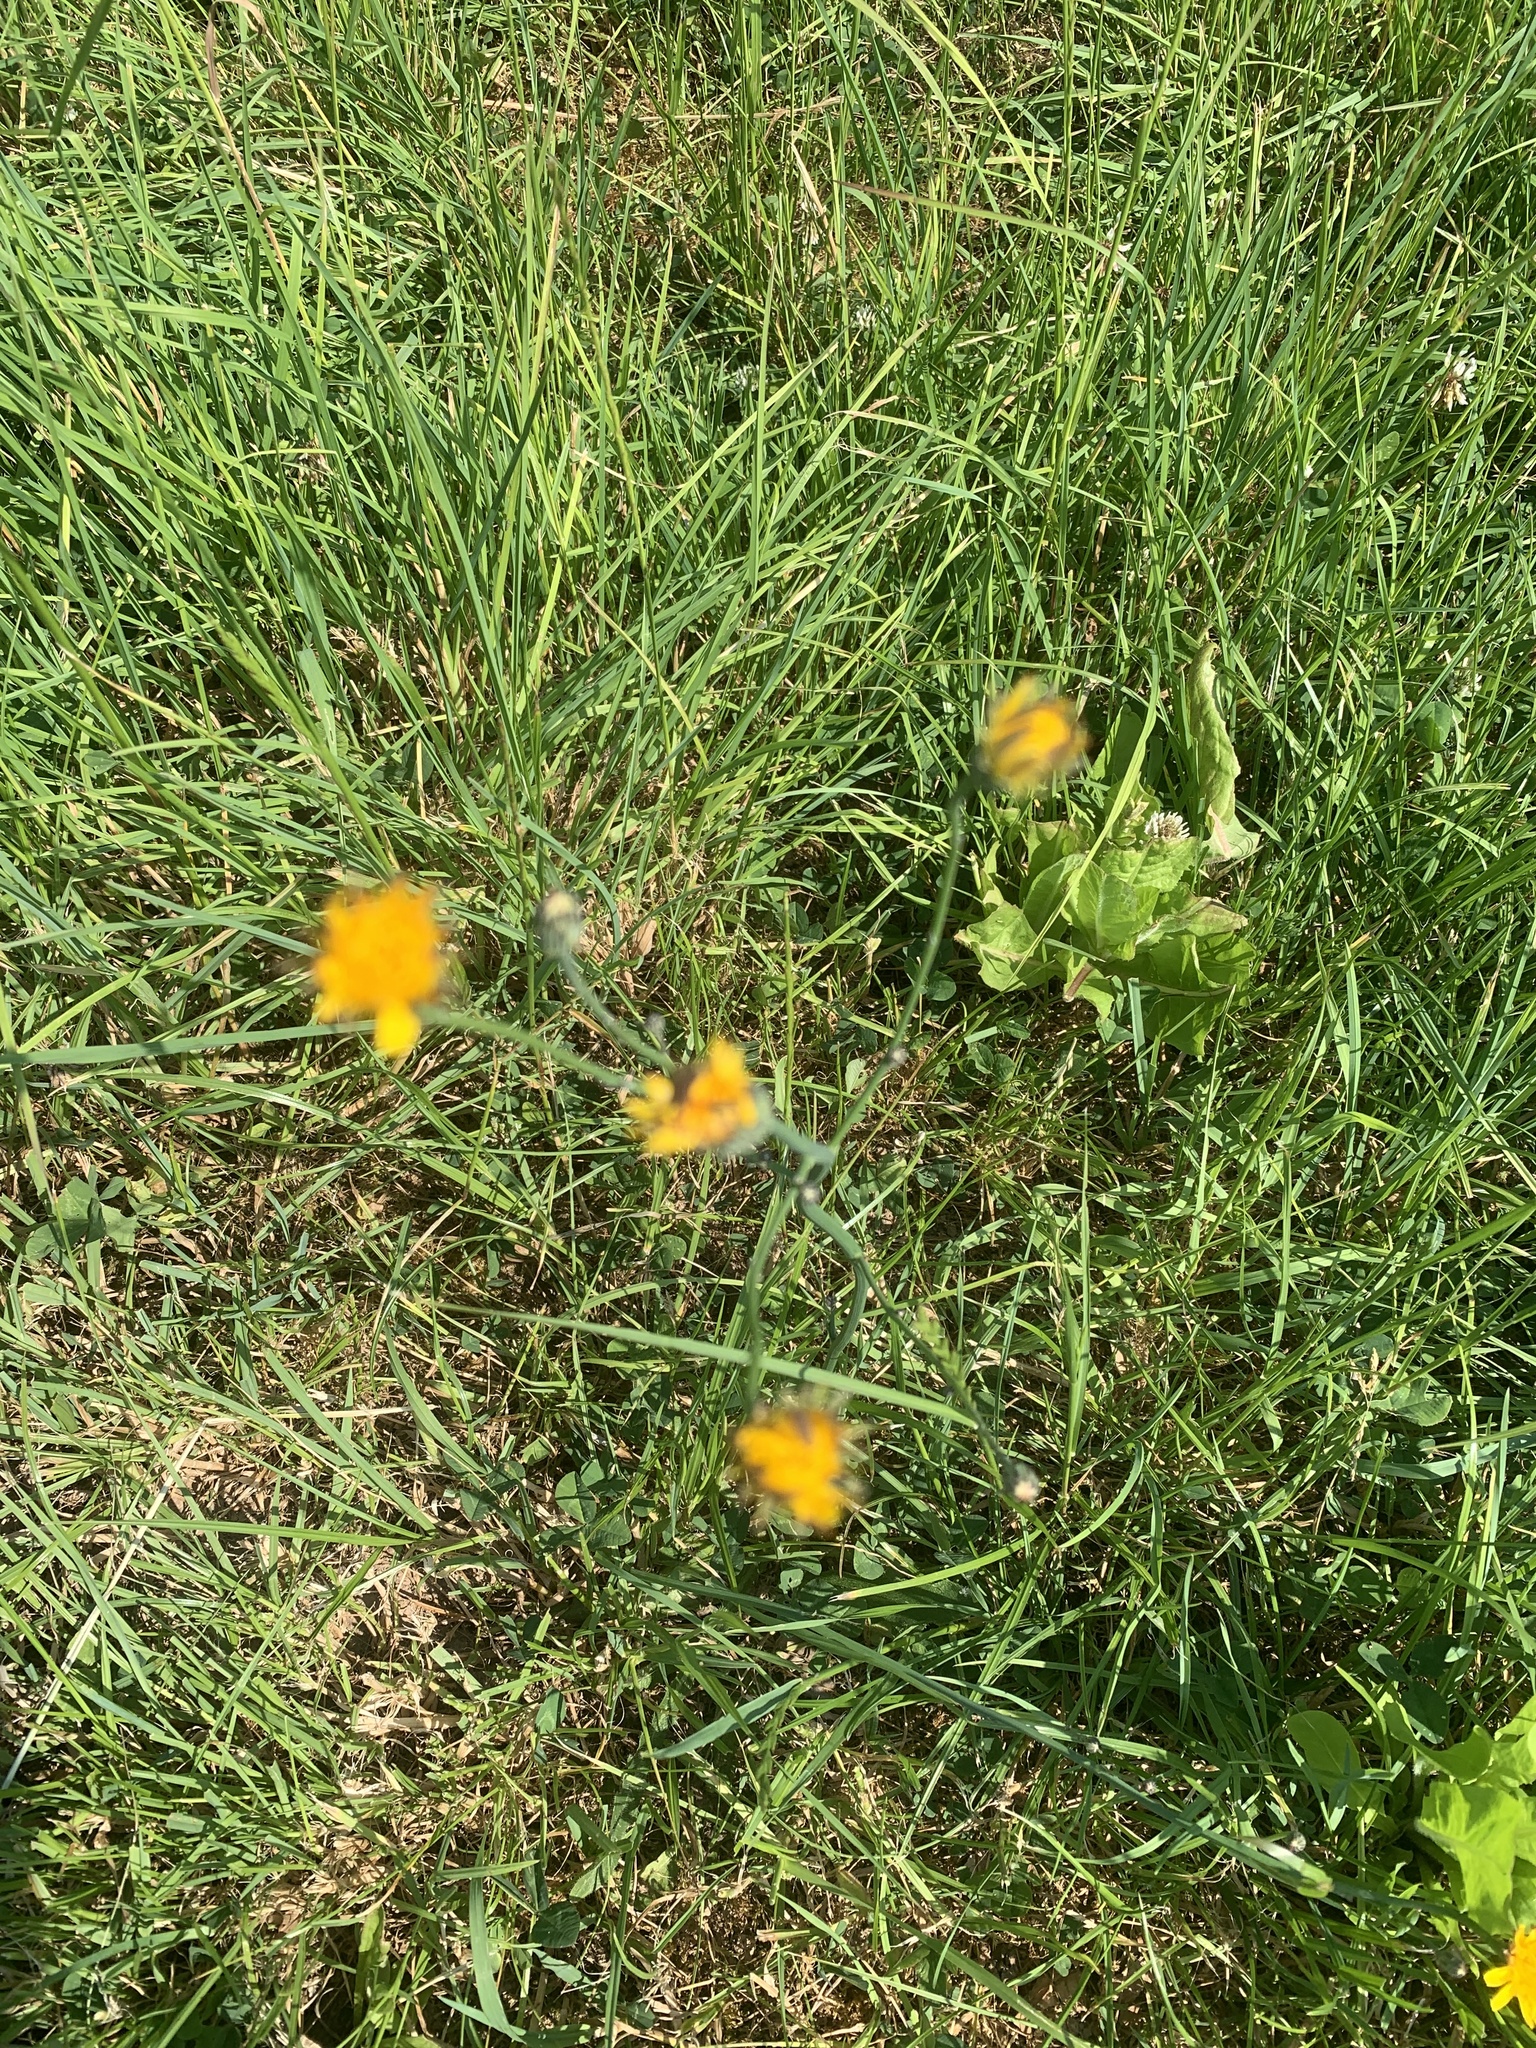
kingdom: Plantae
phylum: Tracheophyta
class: Magnoliopsida
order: Asterales
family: Asteraceae
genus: Hypochaeris
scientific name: Hypochaeris radicata
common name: Flatweed
